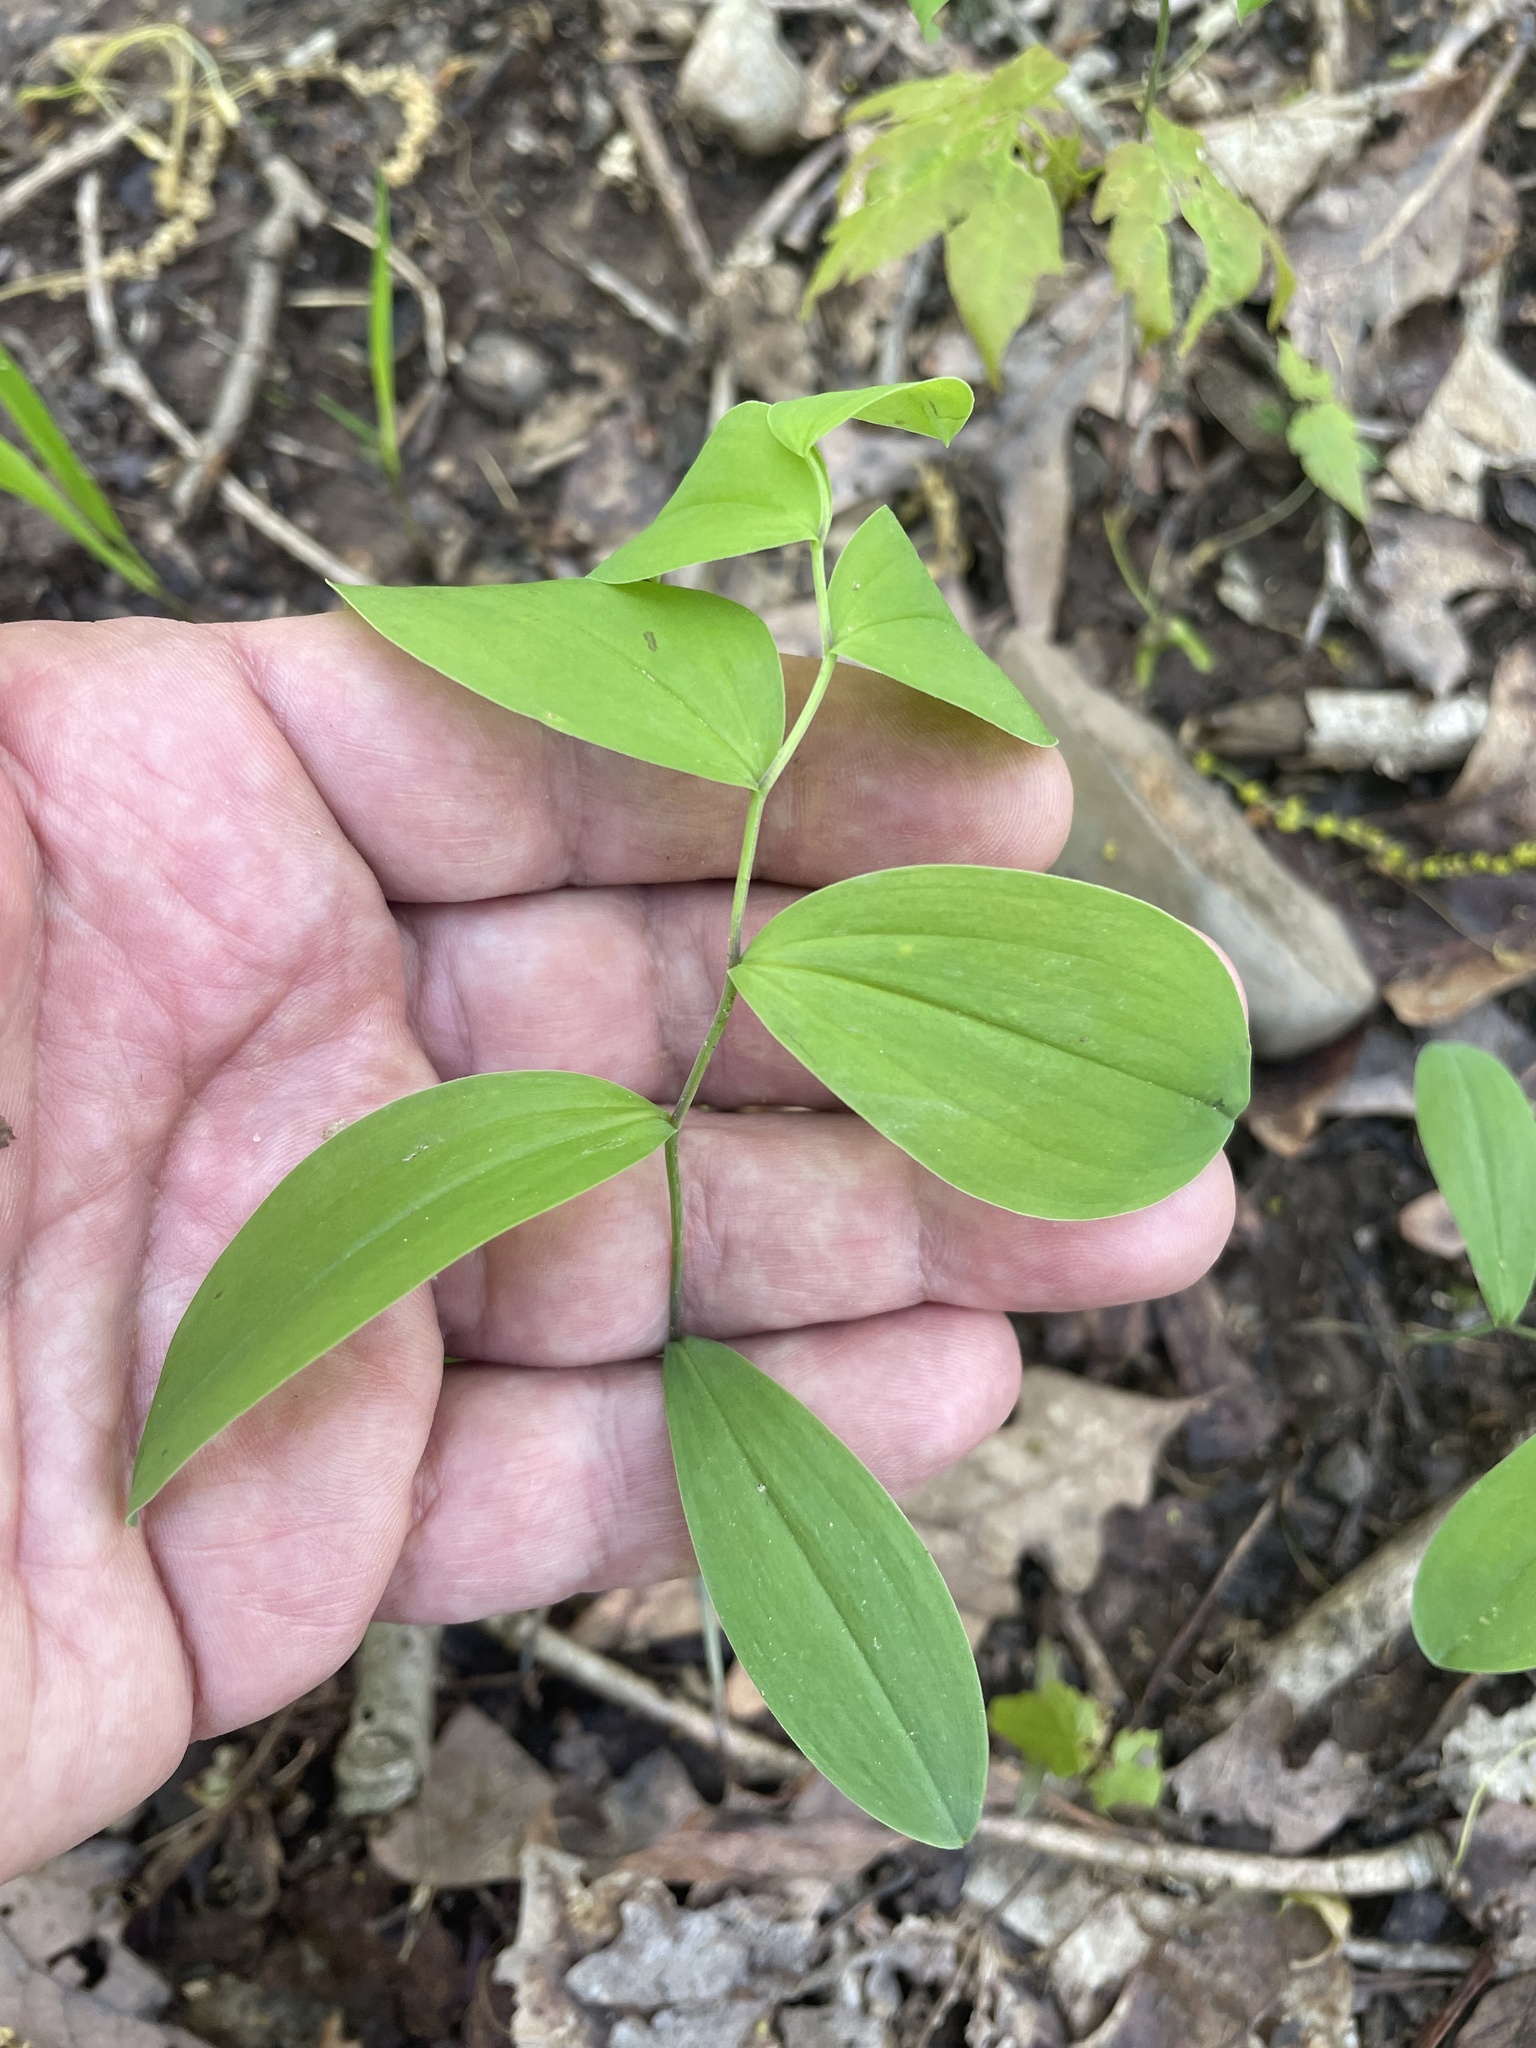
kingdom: Plantae
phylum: Tracheophyta
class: Liliopsida
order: Liliales
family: Colchicaceae
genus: Uvularia
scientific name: Uvularia sessilifolia
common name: Straw-lily
